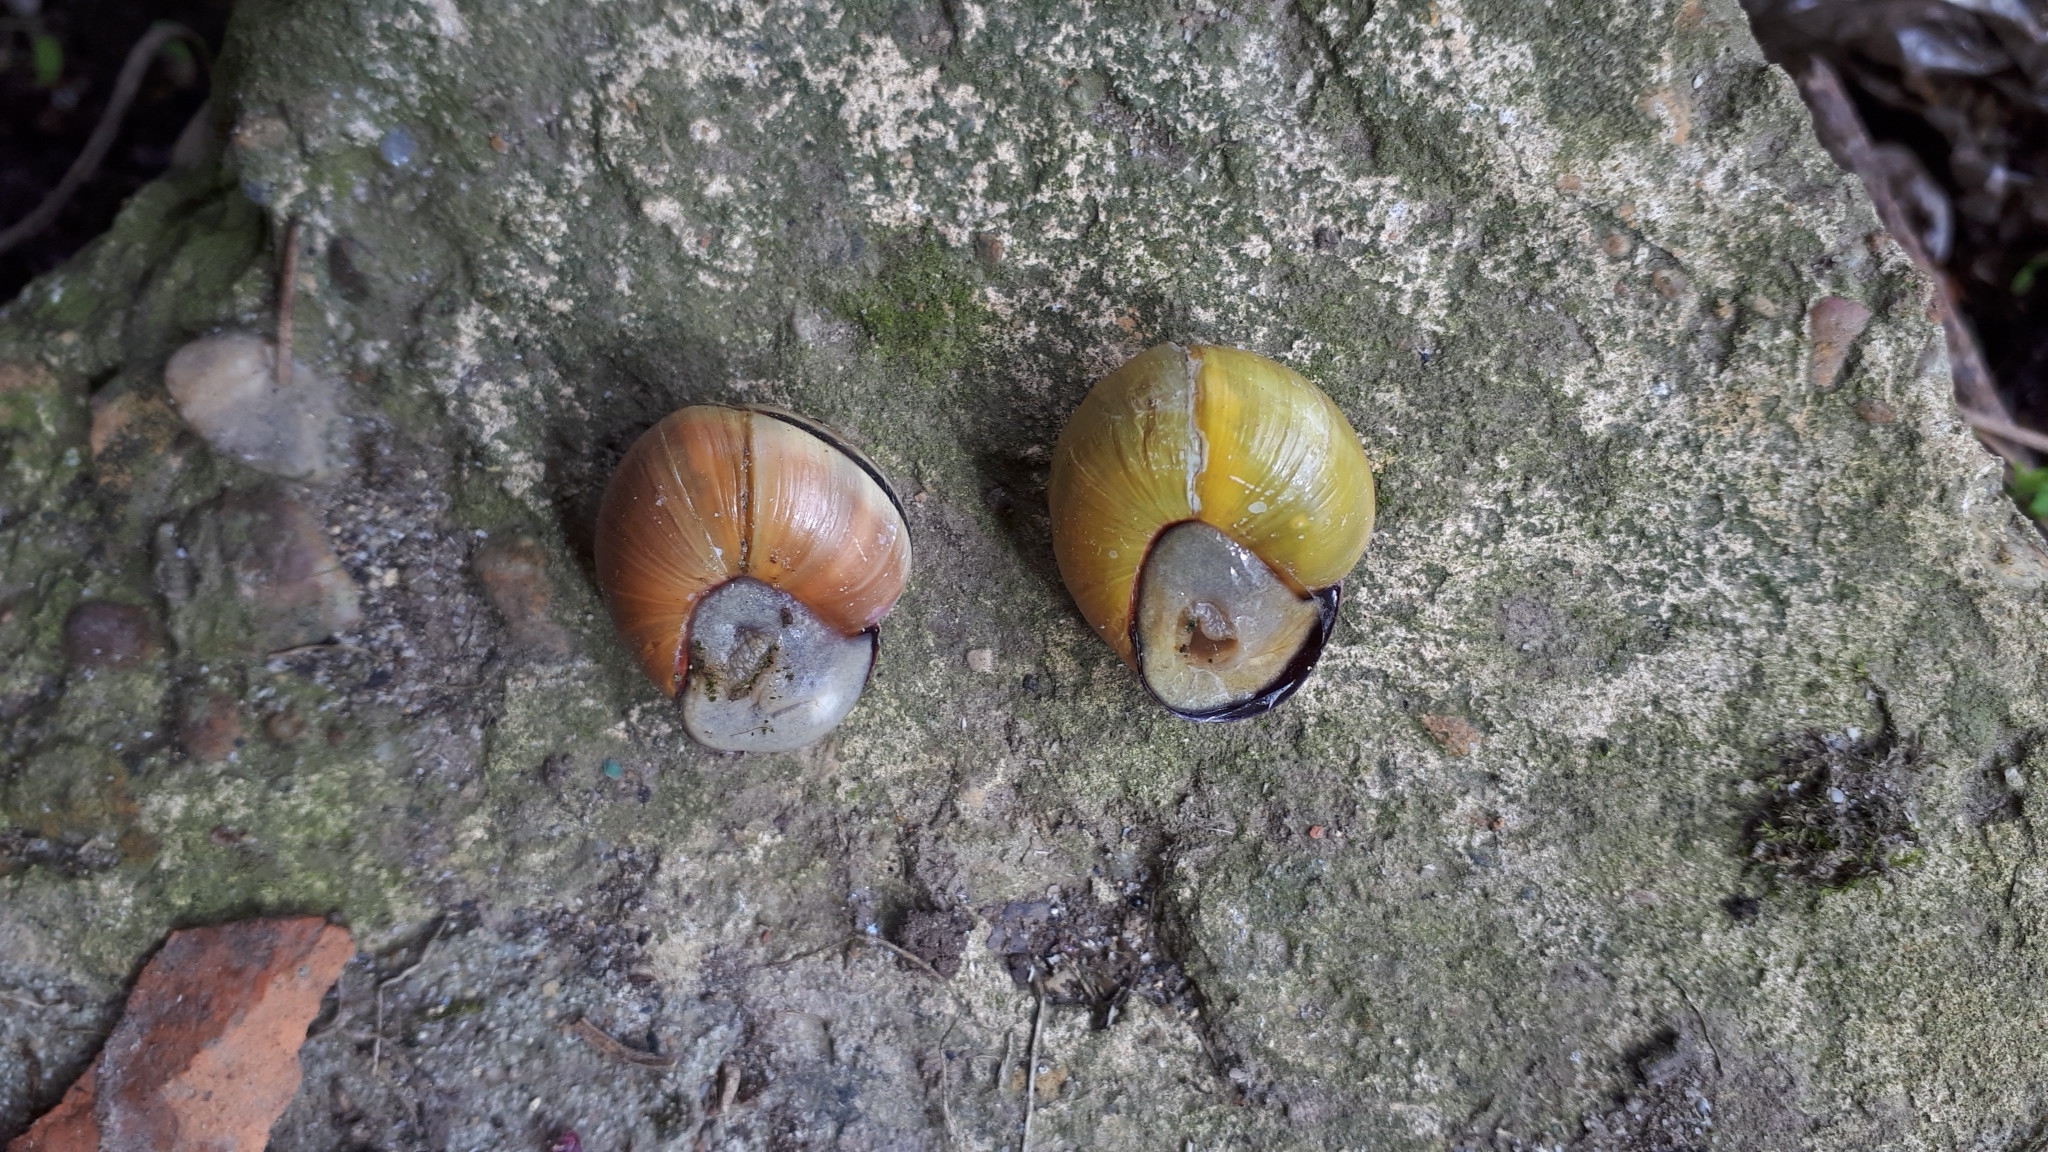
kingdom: Animalia
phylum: Mollusca
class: Gastropoda
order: Stylommatophora
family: Helicidae
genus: Cepaea
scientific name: Cepaea nemoralis
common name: Grovesnail
